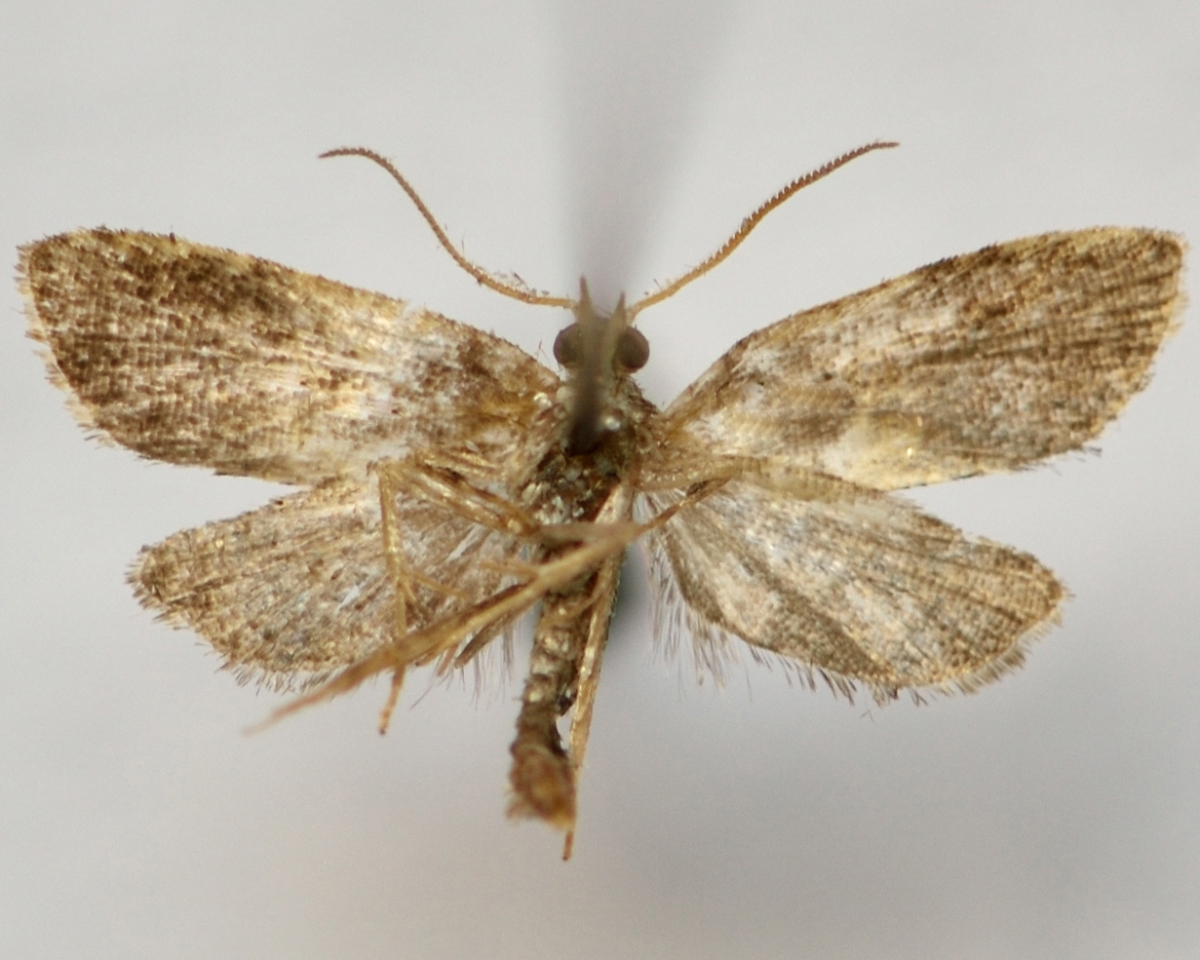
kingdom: Animalia
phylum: Arthropoda
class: Insecta
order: Lepidoptera
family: Tortricidae
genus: Pseudargyrotoza
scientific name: Pseudargyrotoza conwagana
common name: Yellow-spot twist
